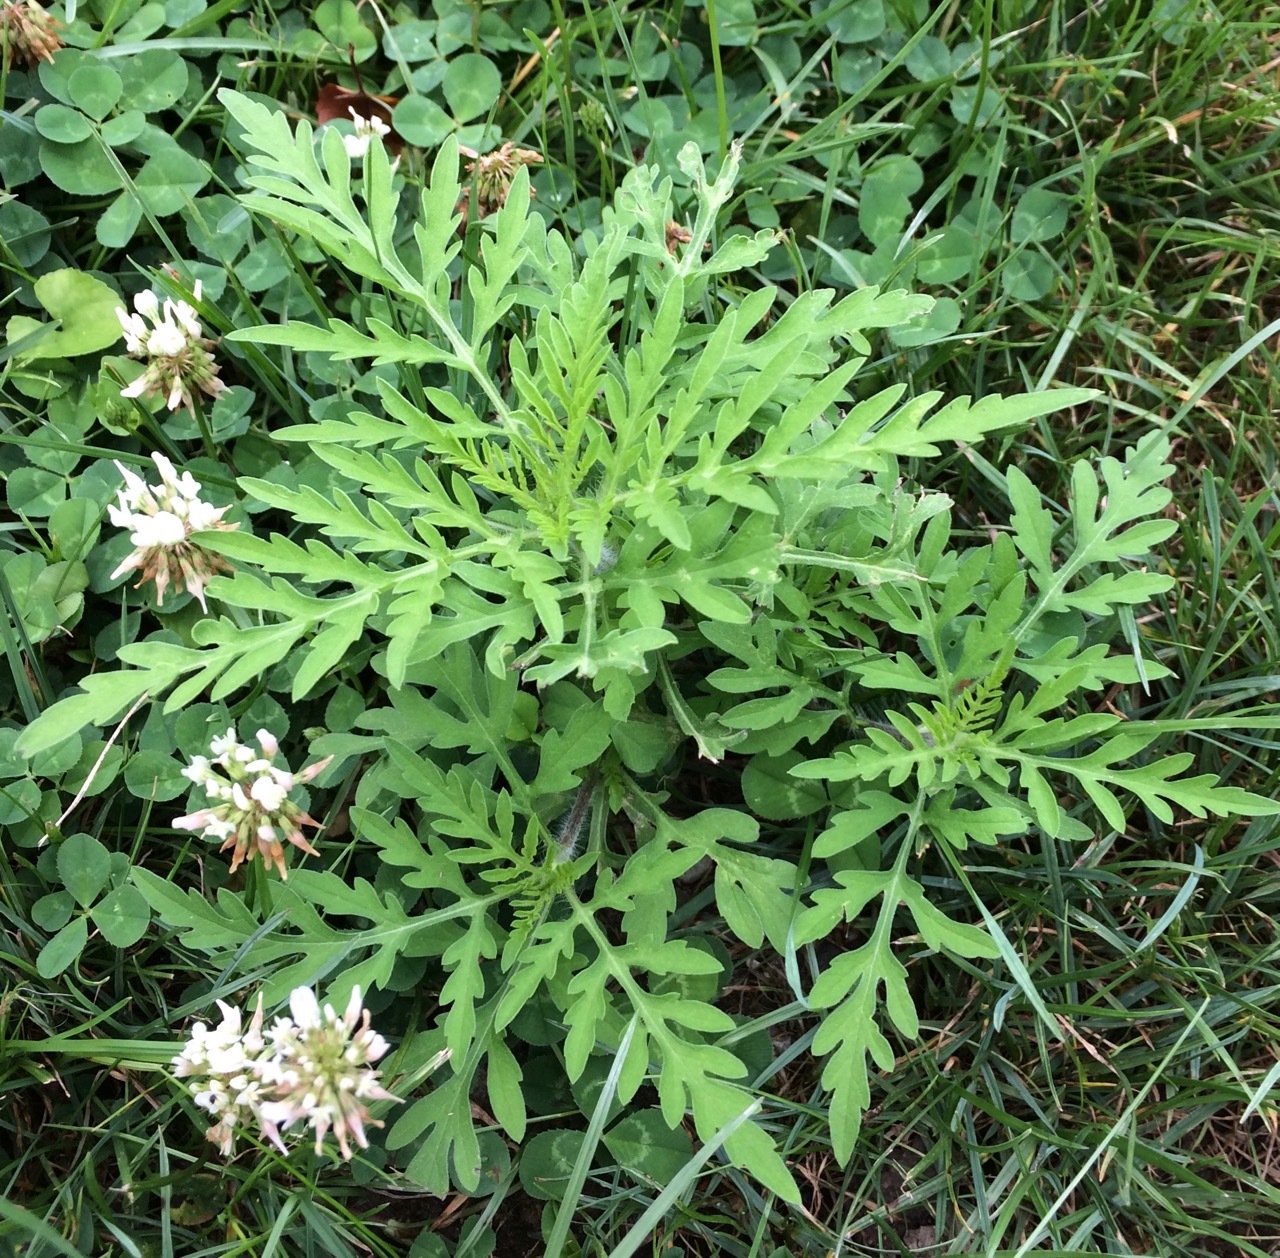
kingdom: Plantae
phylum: Tracheophyta
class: Magnoliopsida
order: Asterales
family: Asteraceae
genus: Ambrosia
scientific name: Ambrosia artemisiifolia
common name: Annual ragweed
